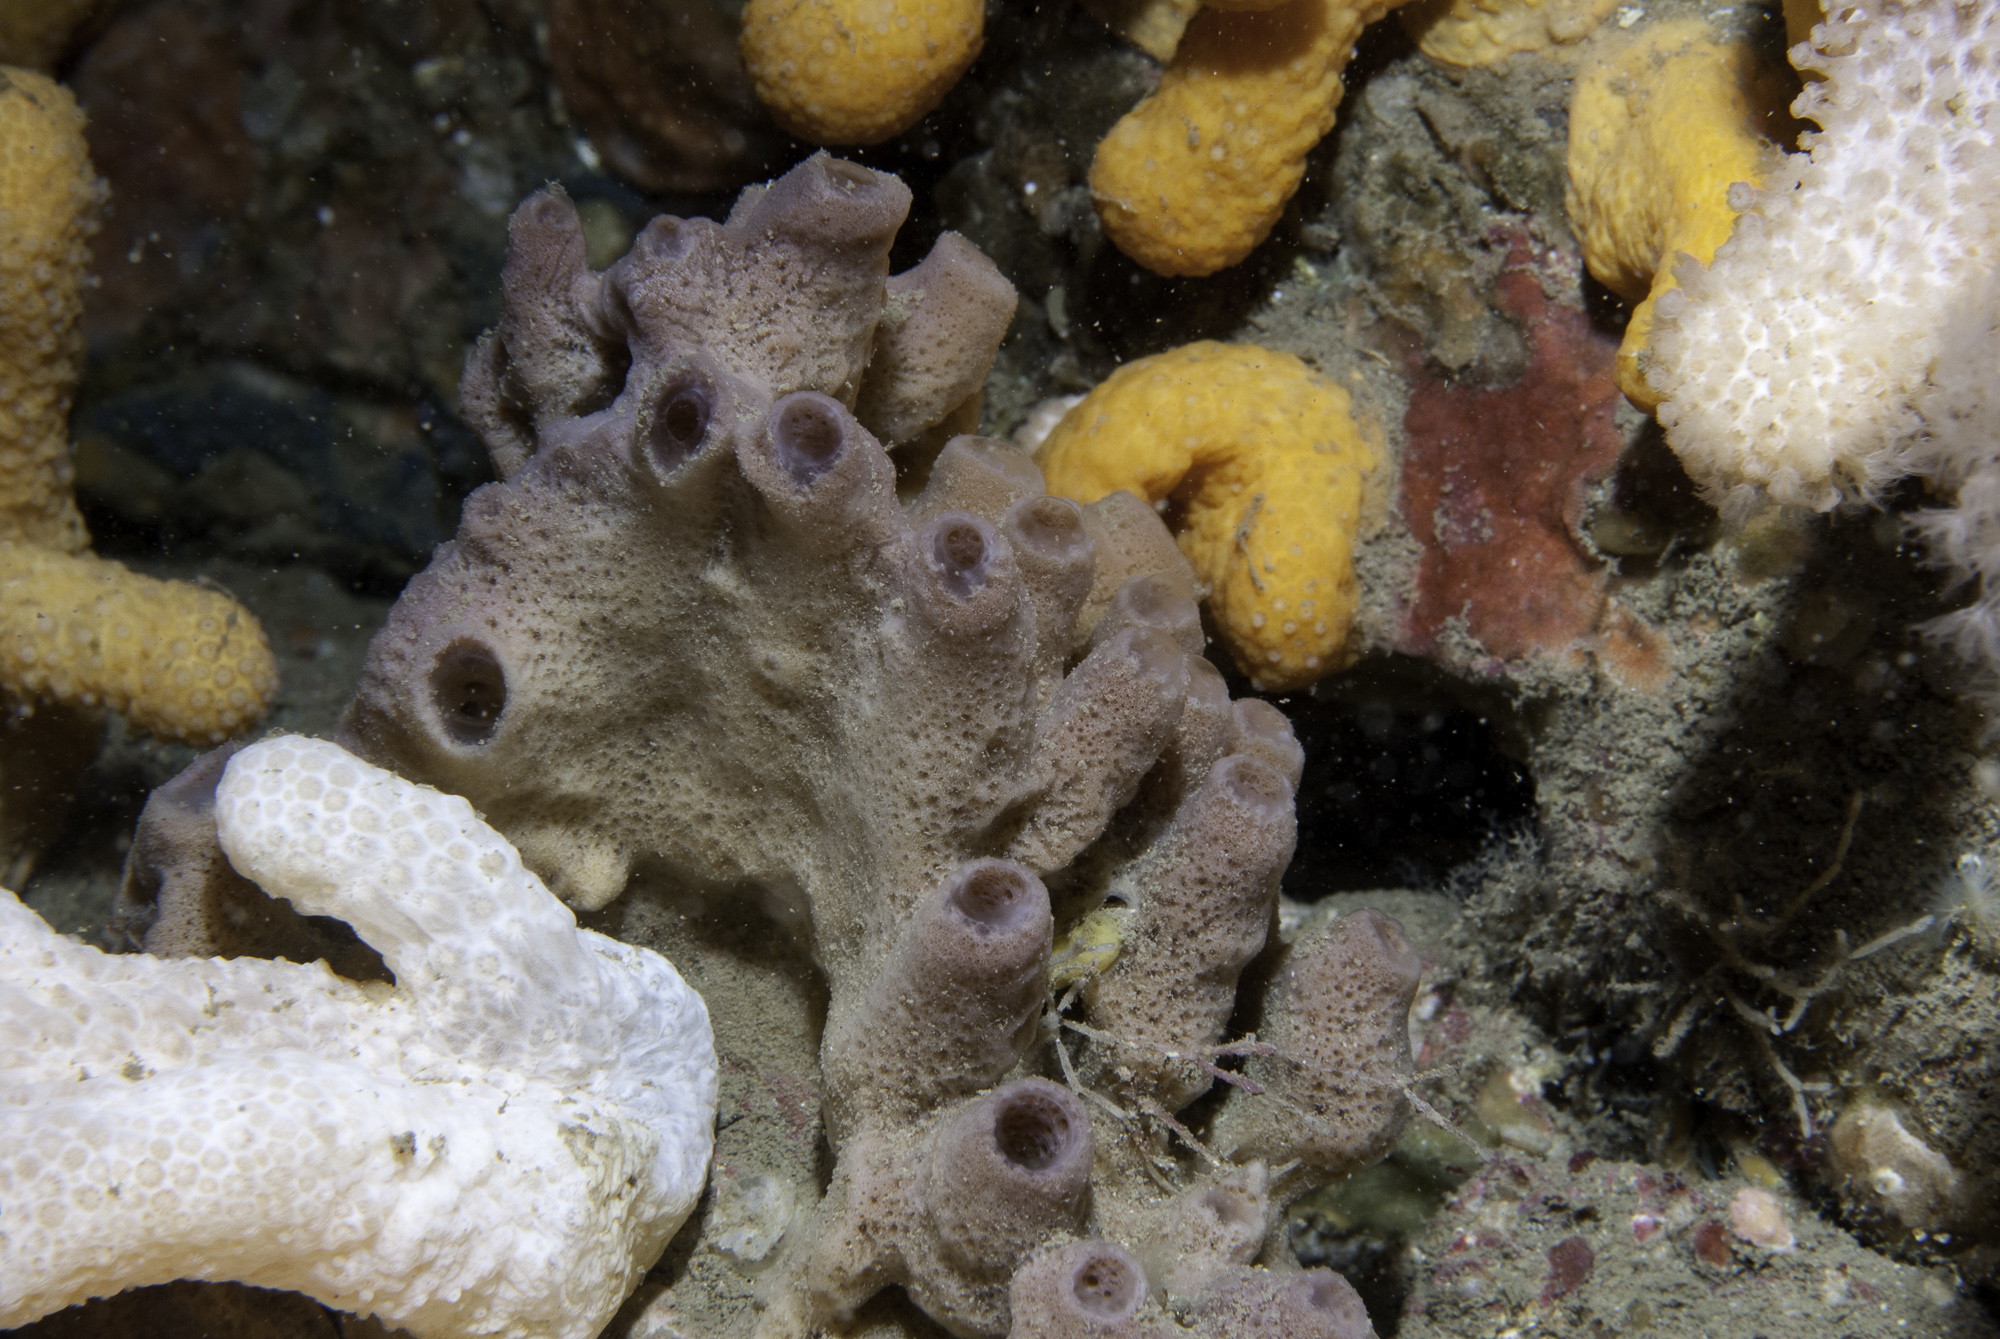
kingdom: Animalia
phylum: Porifera
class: Demospongiae
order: Haplosclerida
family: Chalinidae
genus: Haliclona
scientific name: Haliclona viscosa
